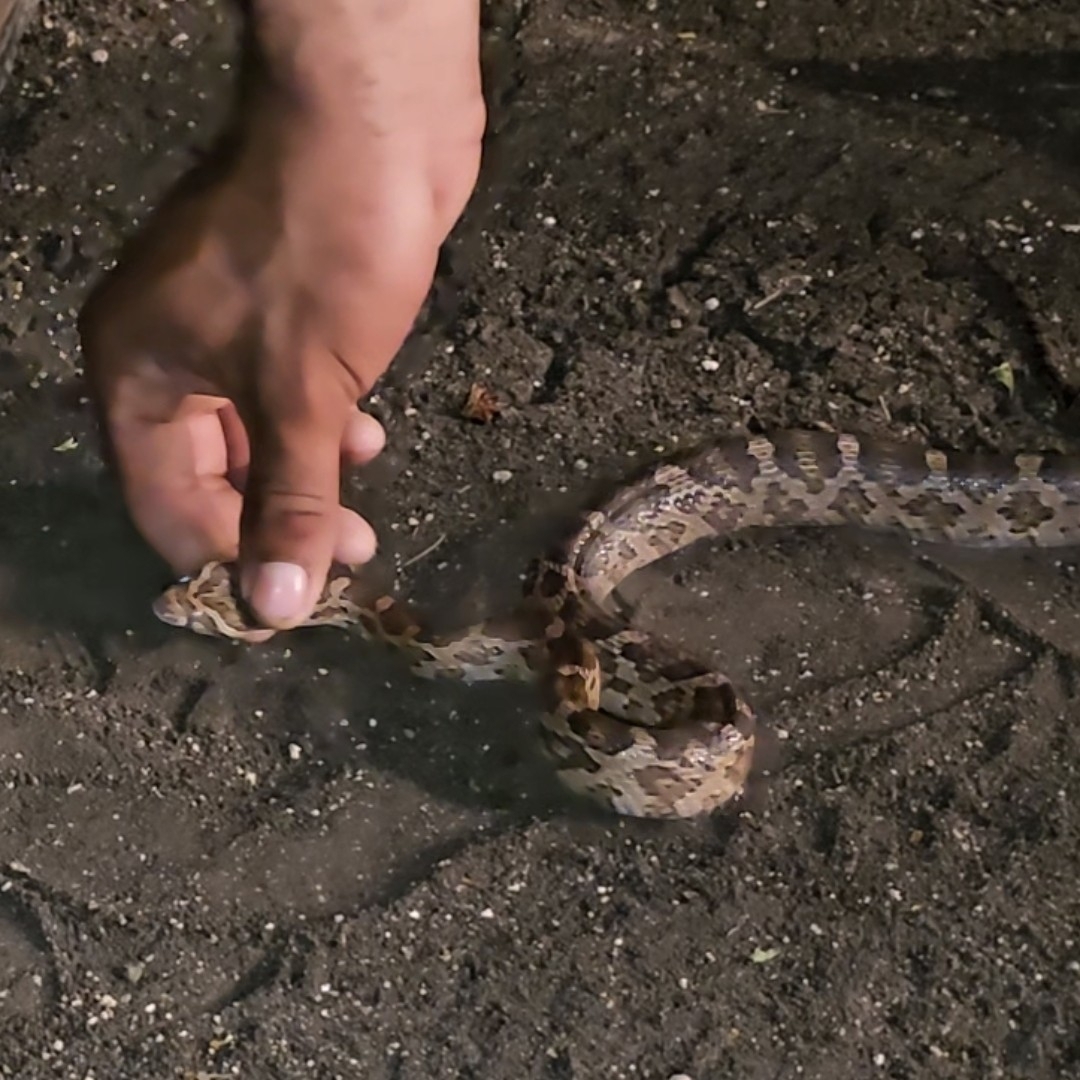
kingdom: Animalia
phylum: Chordata
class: Squamata
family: Colubridae
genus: Pantherophis
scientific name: Pantherophis emoryi
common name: Great plains rat snake
